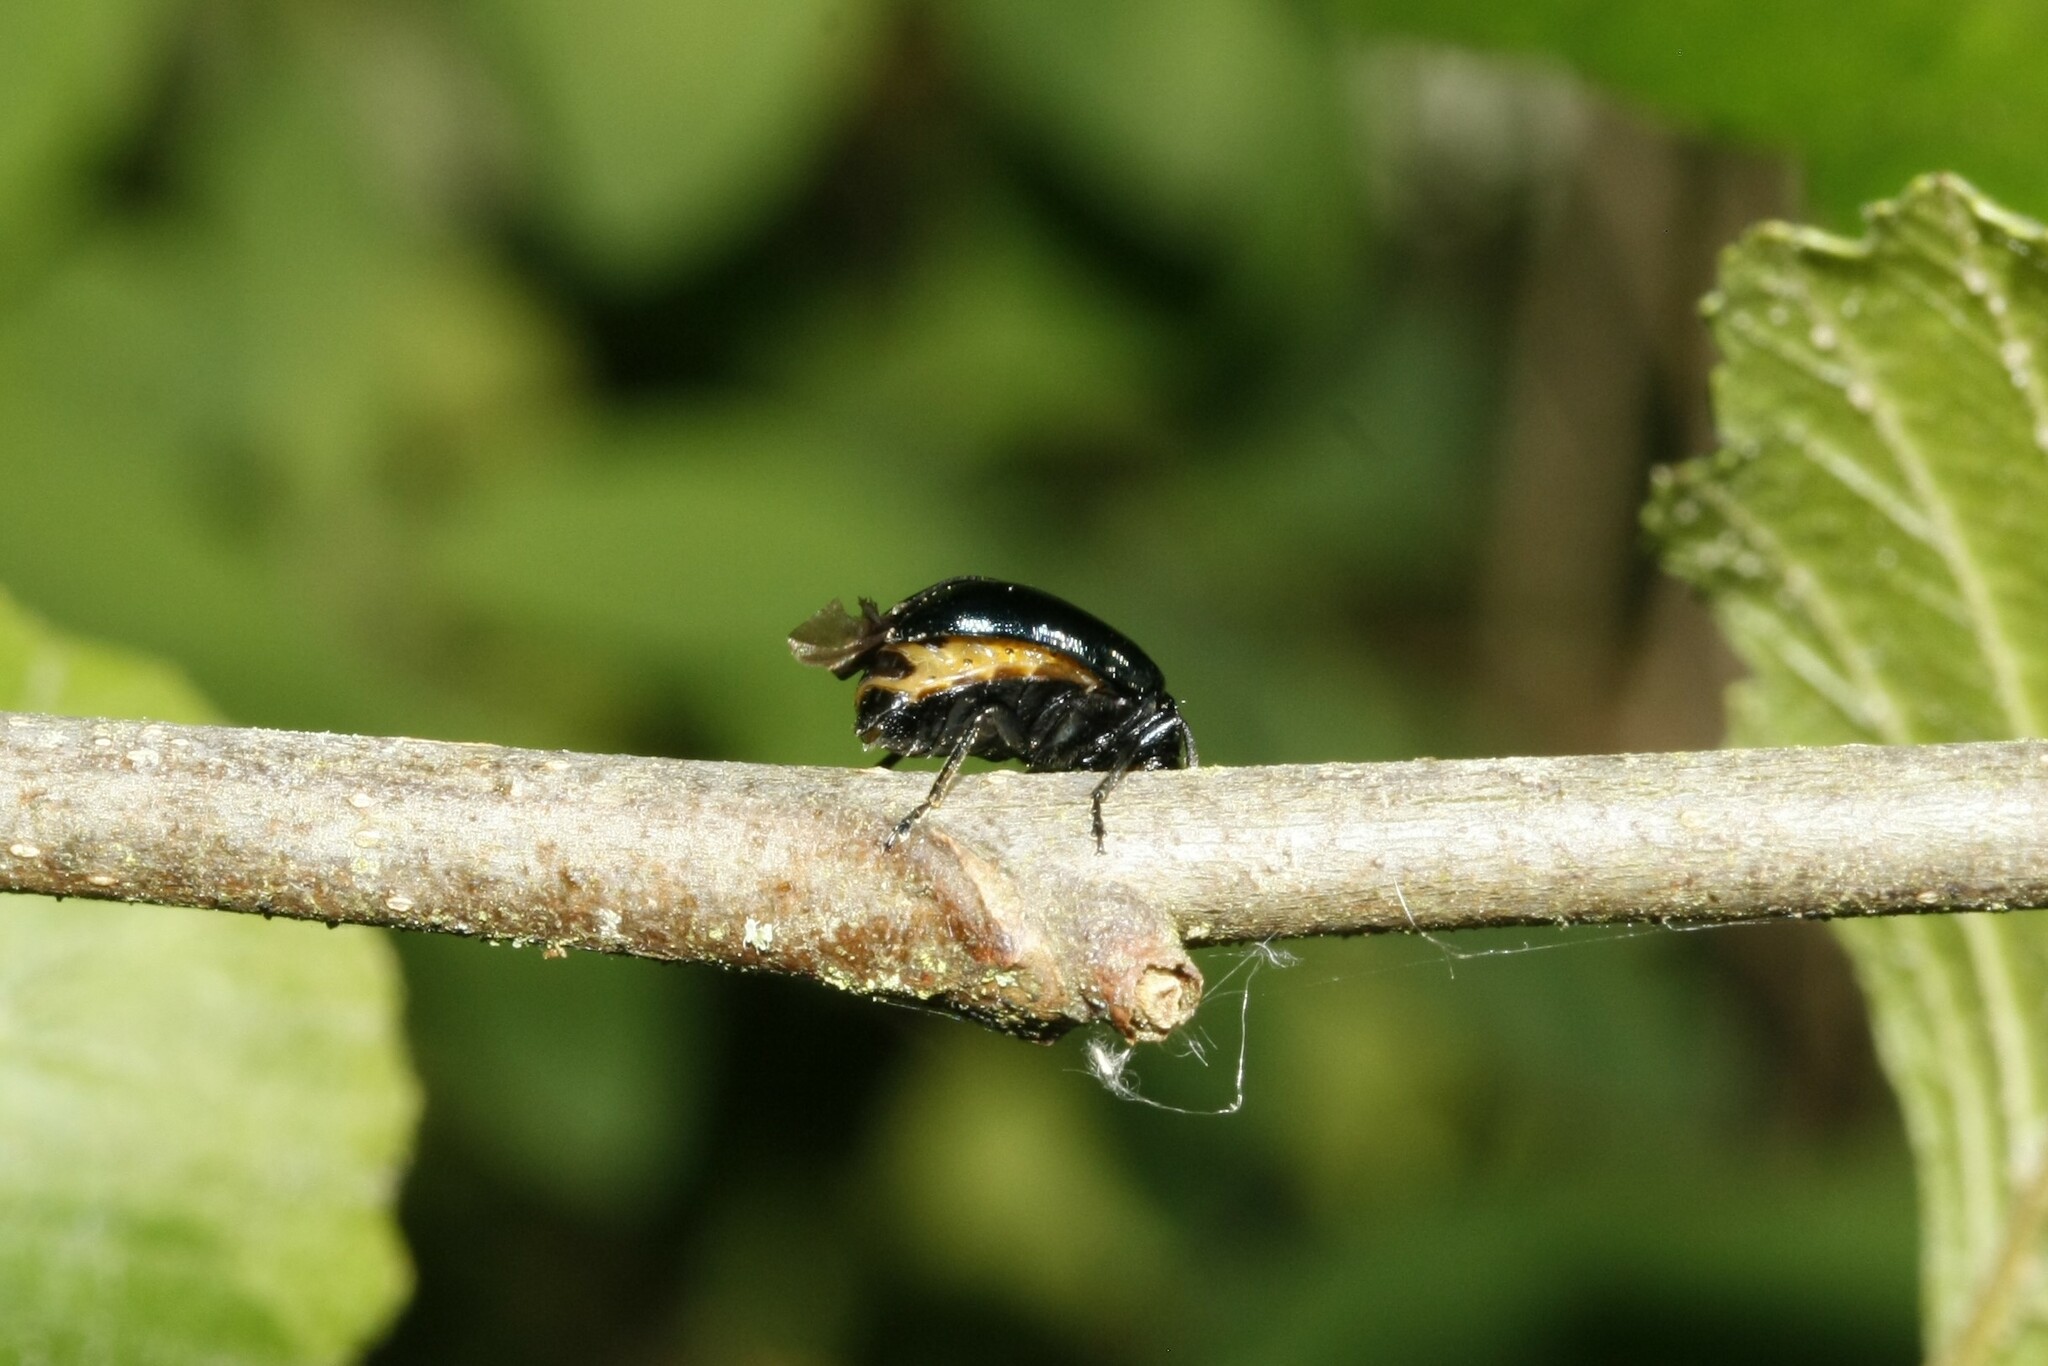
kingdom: Animalia
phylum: Arthropoda
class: Insecta
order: Coleoptera
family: Chrysomelidae
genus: Agelastica
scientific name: Agelastica alni
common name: Alder leaf beetle
